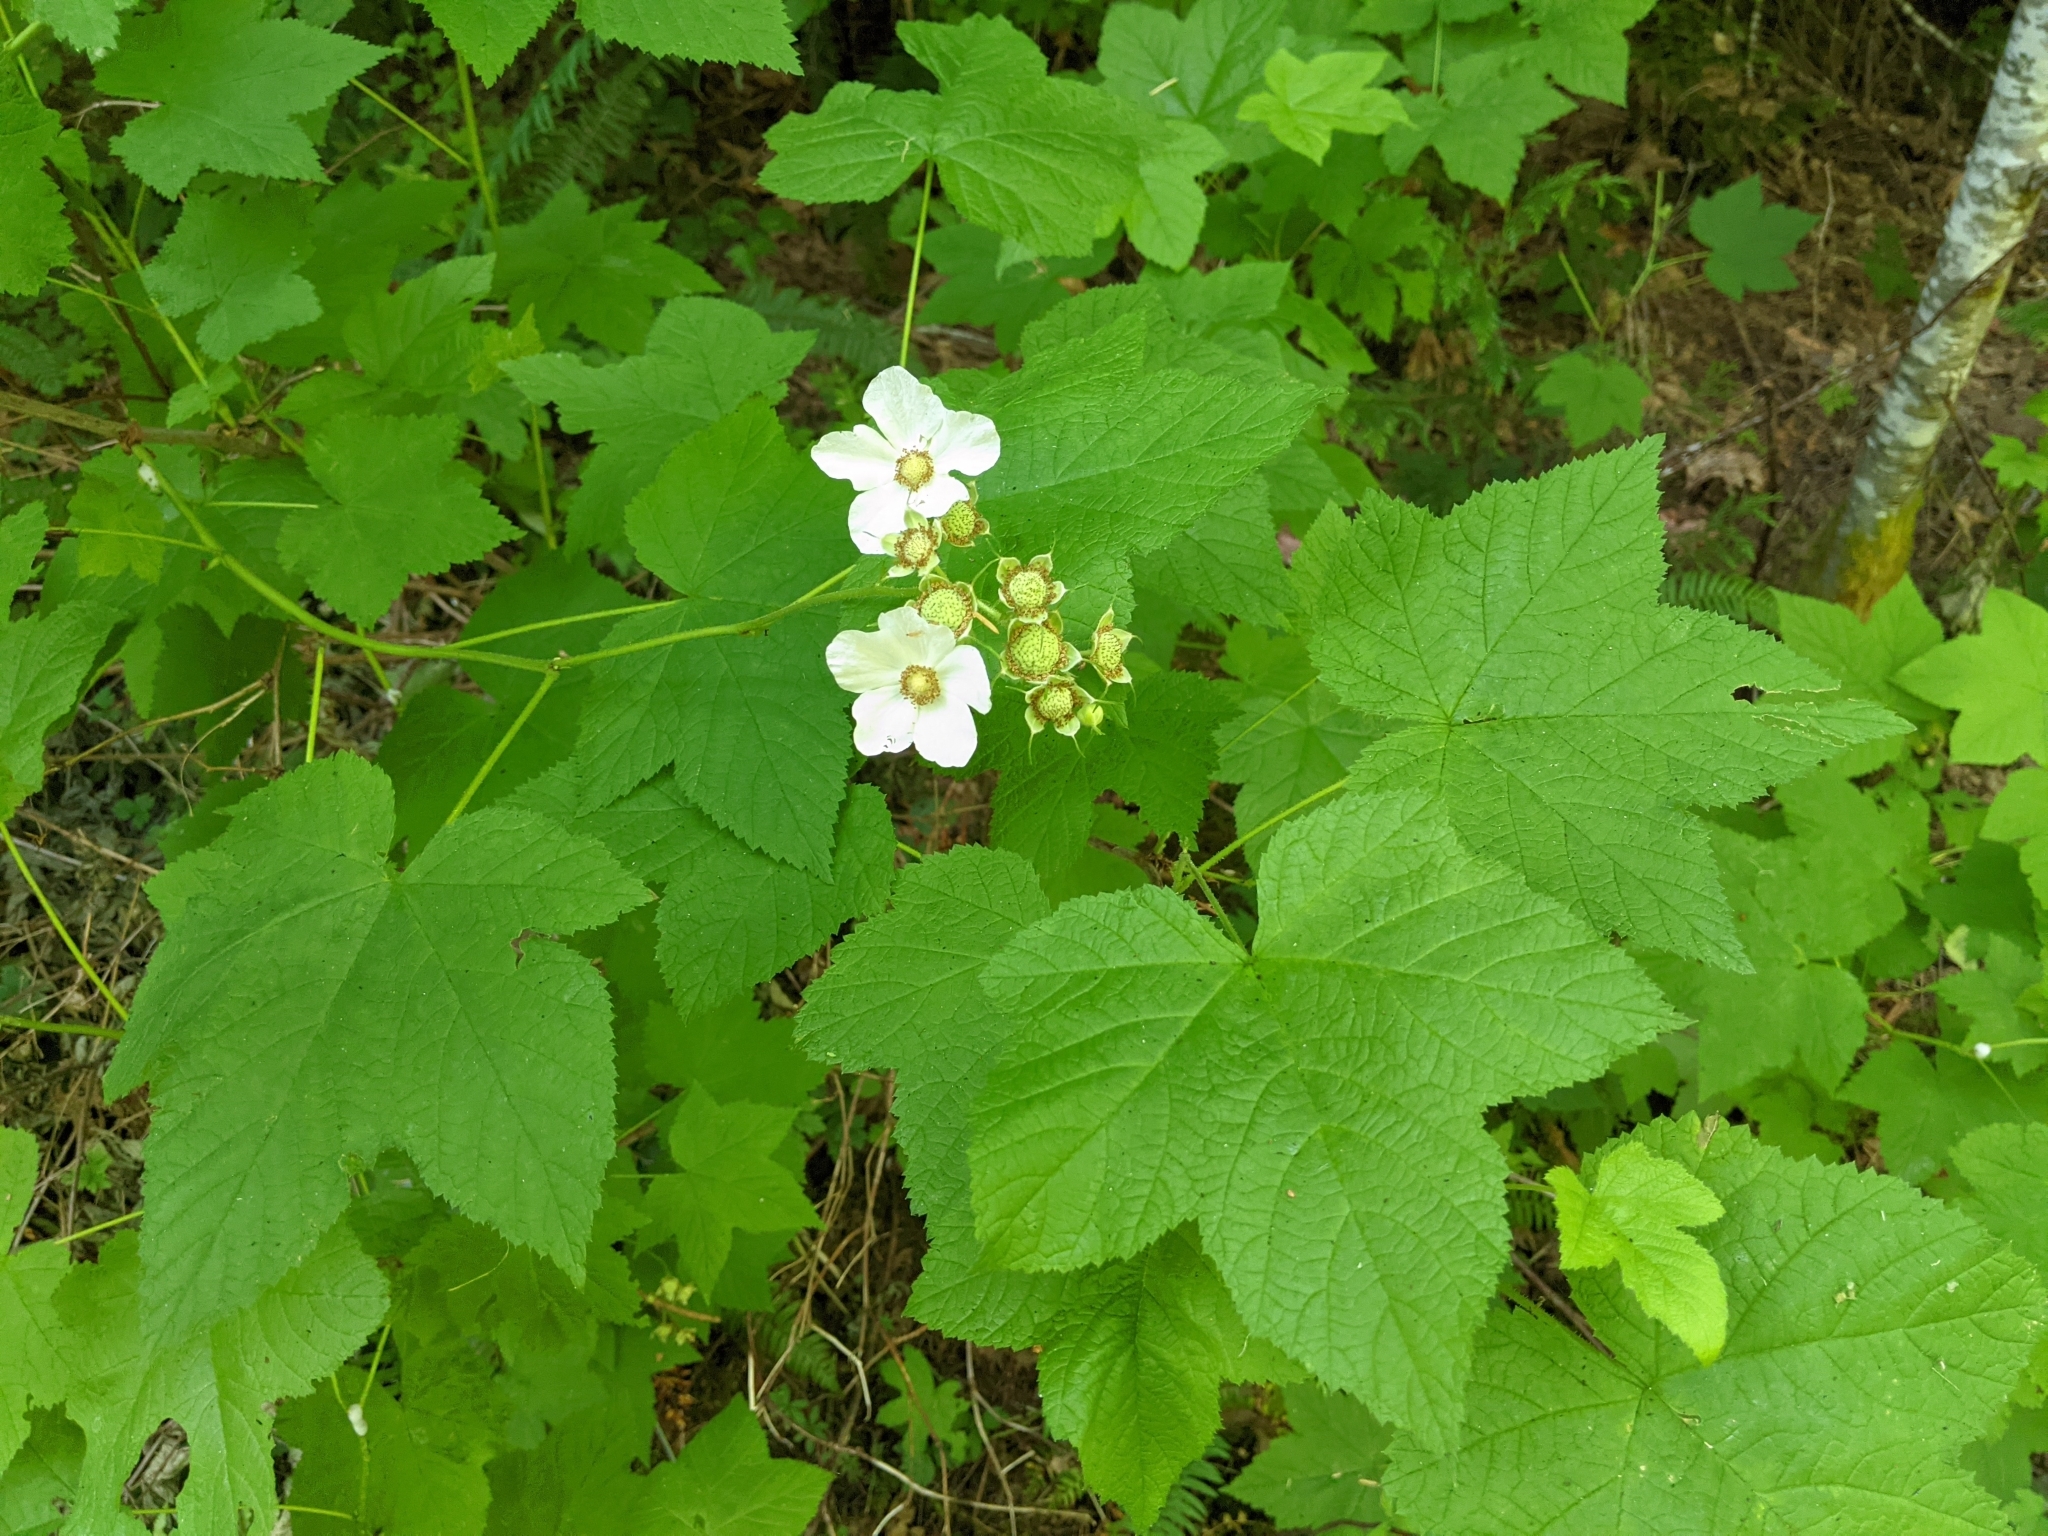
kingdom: Plantae
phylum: Tracheophyta
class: Magnoliopsida
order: Rosales
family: Rosaceae
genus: Rubus
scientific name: Rubus parviflorus
